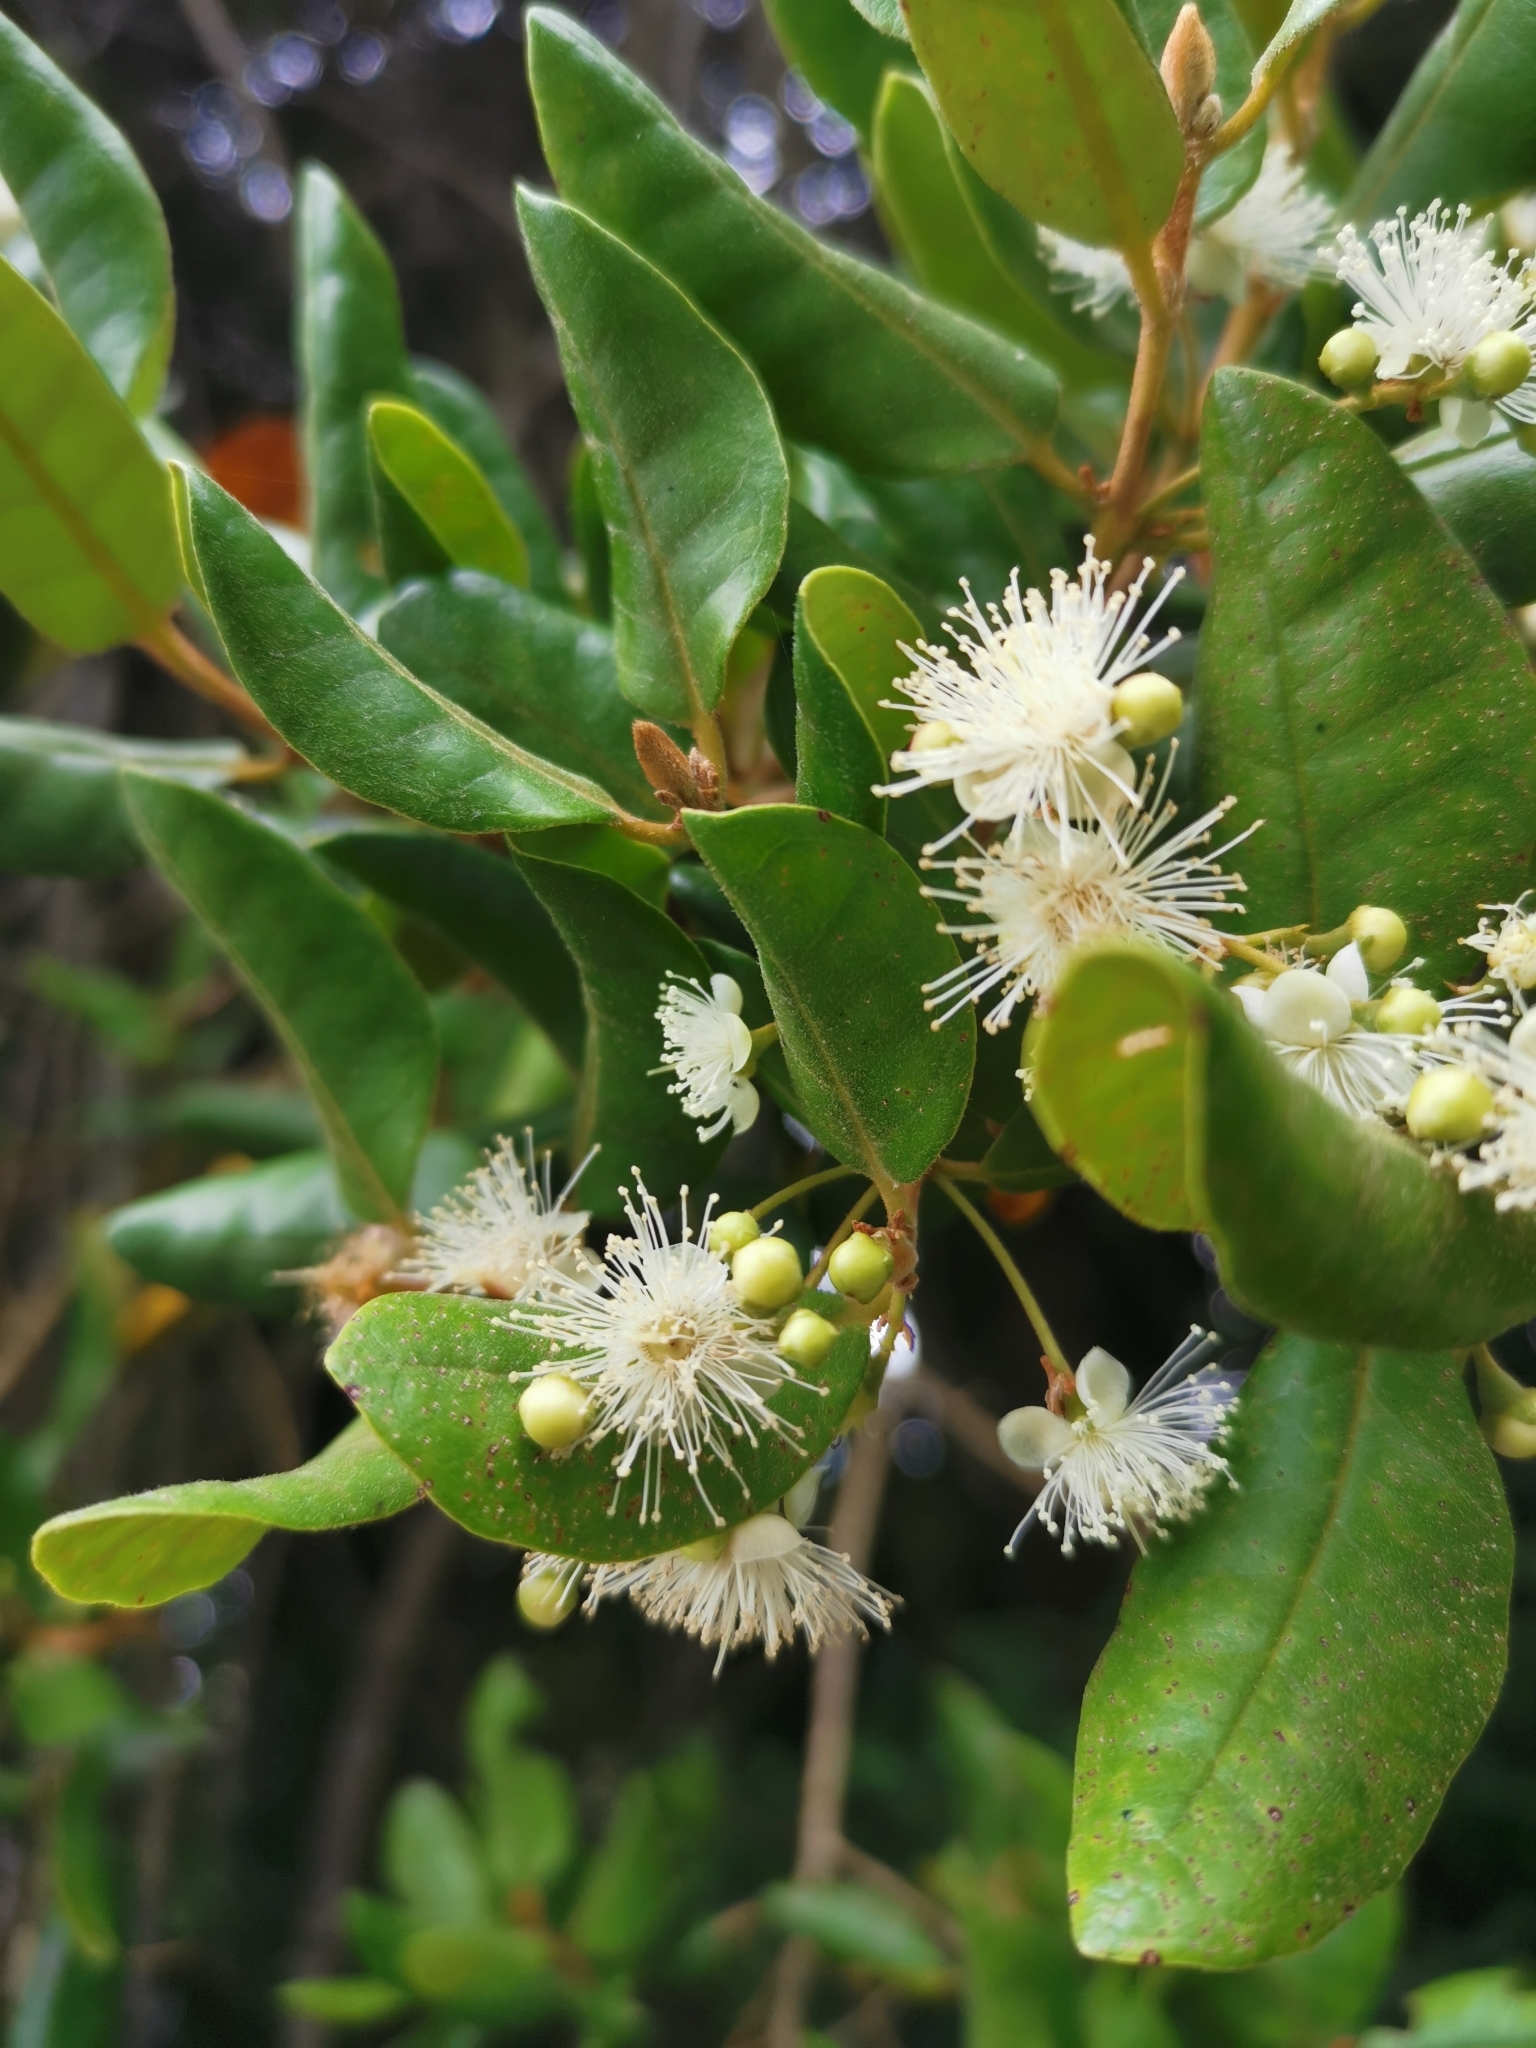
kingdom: Plantae
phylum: Tracheophyta
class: Magnoliopsida
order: Myrtales
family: Myrtaceae
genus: Myrceugenia
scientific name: Myrceugenia exsucca
